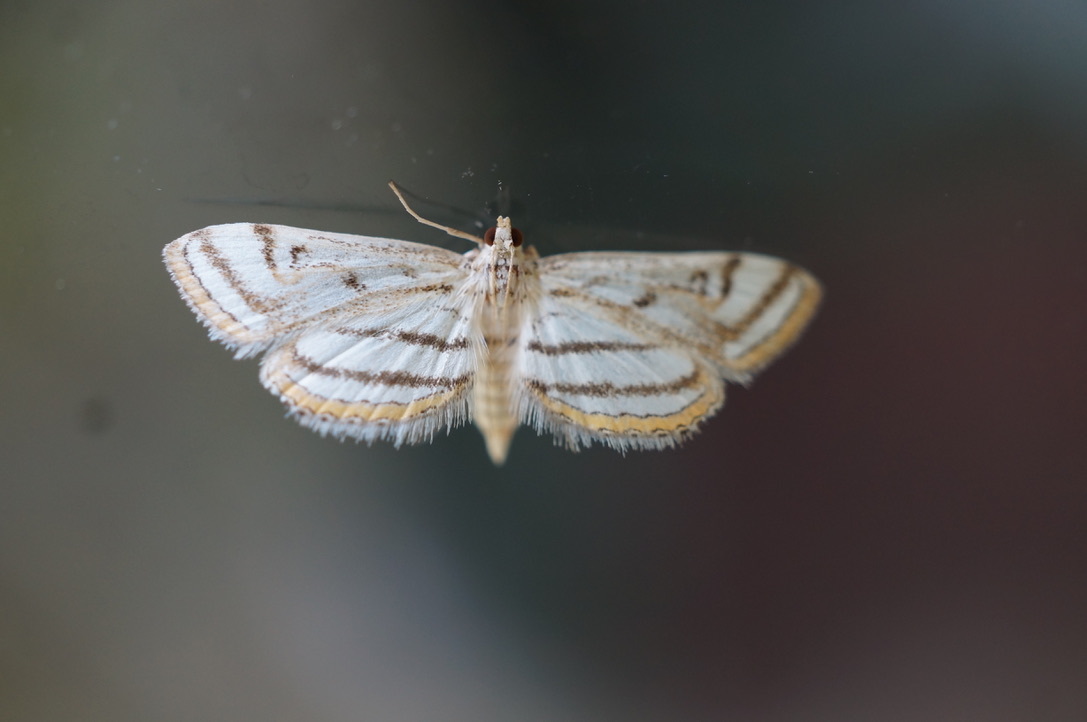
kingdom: Animalia
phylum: Arthropoda
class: Insecta
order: Lepidoptera
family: Crambidae
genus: Parapoynx
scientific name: Parapoynx badiusalis
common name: Chestnut-marked pondweed moth
